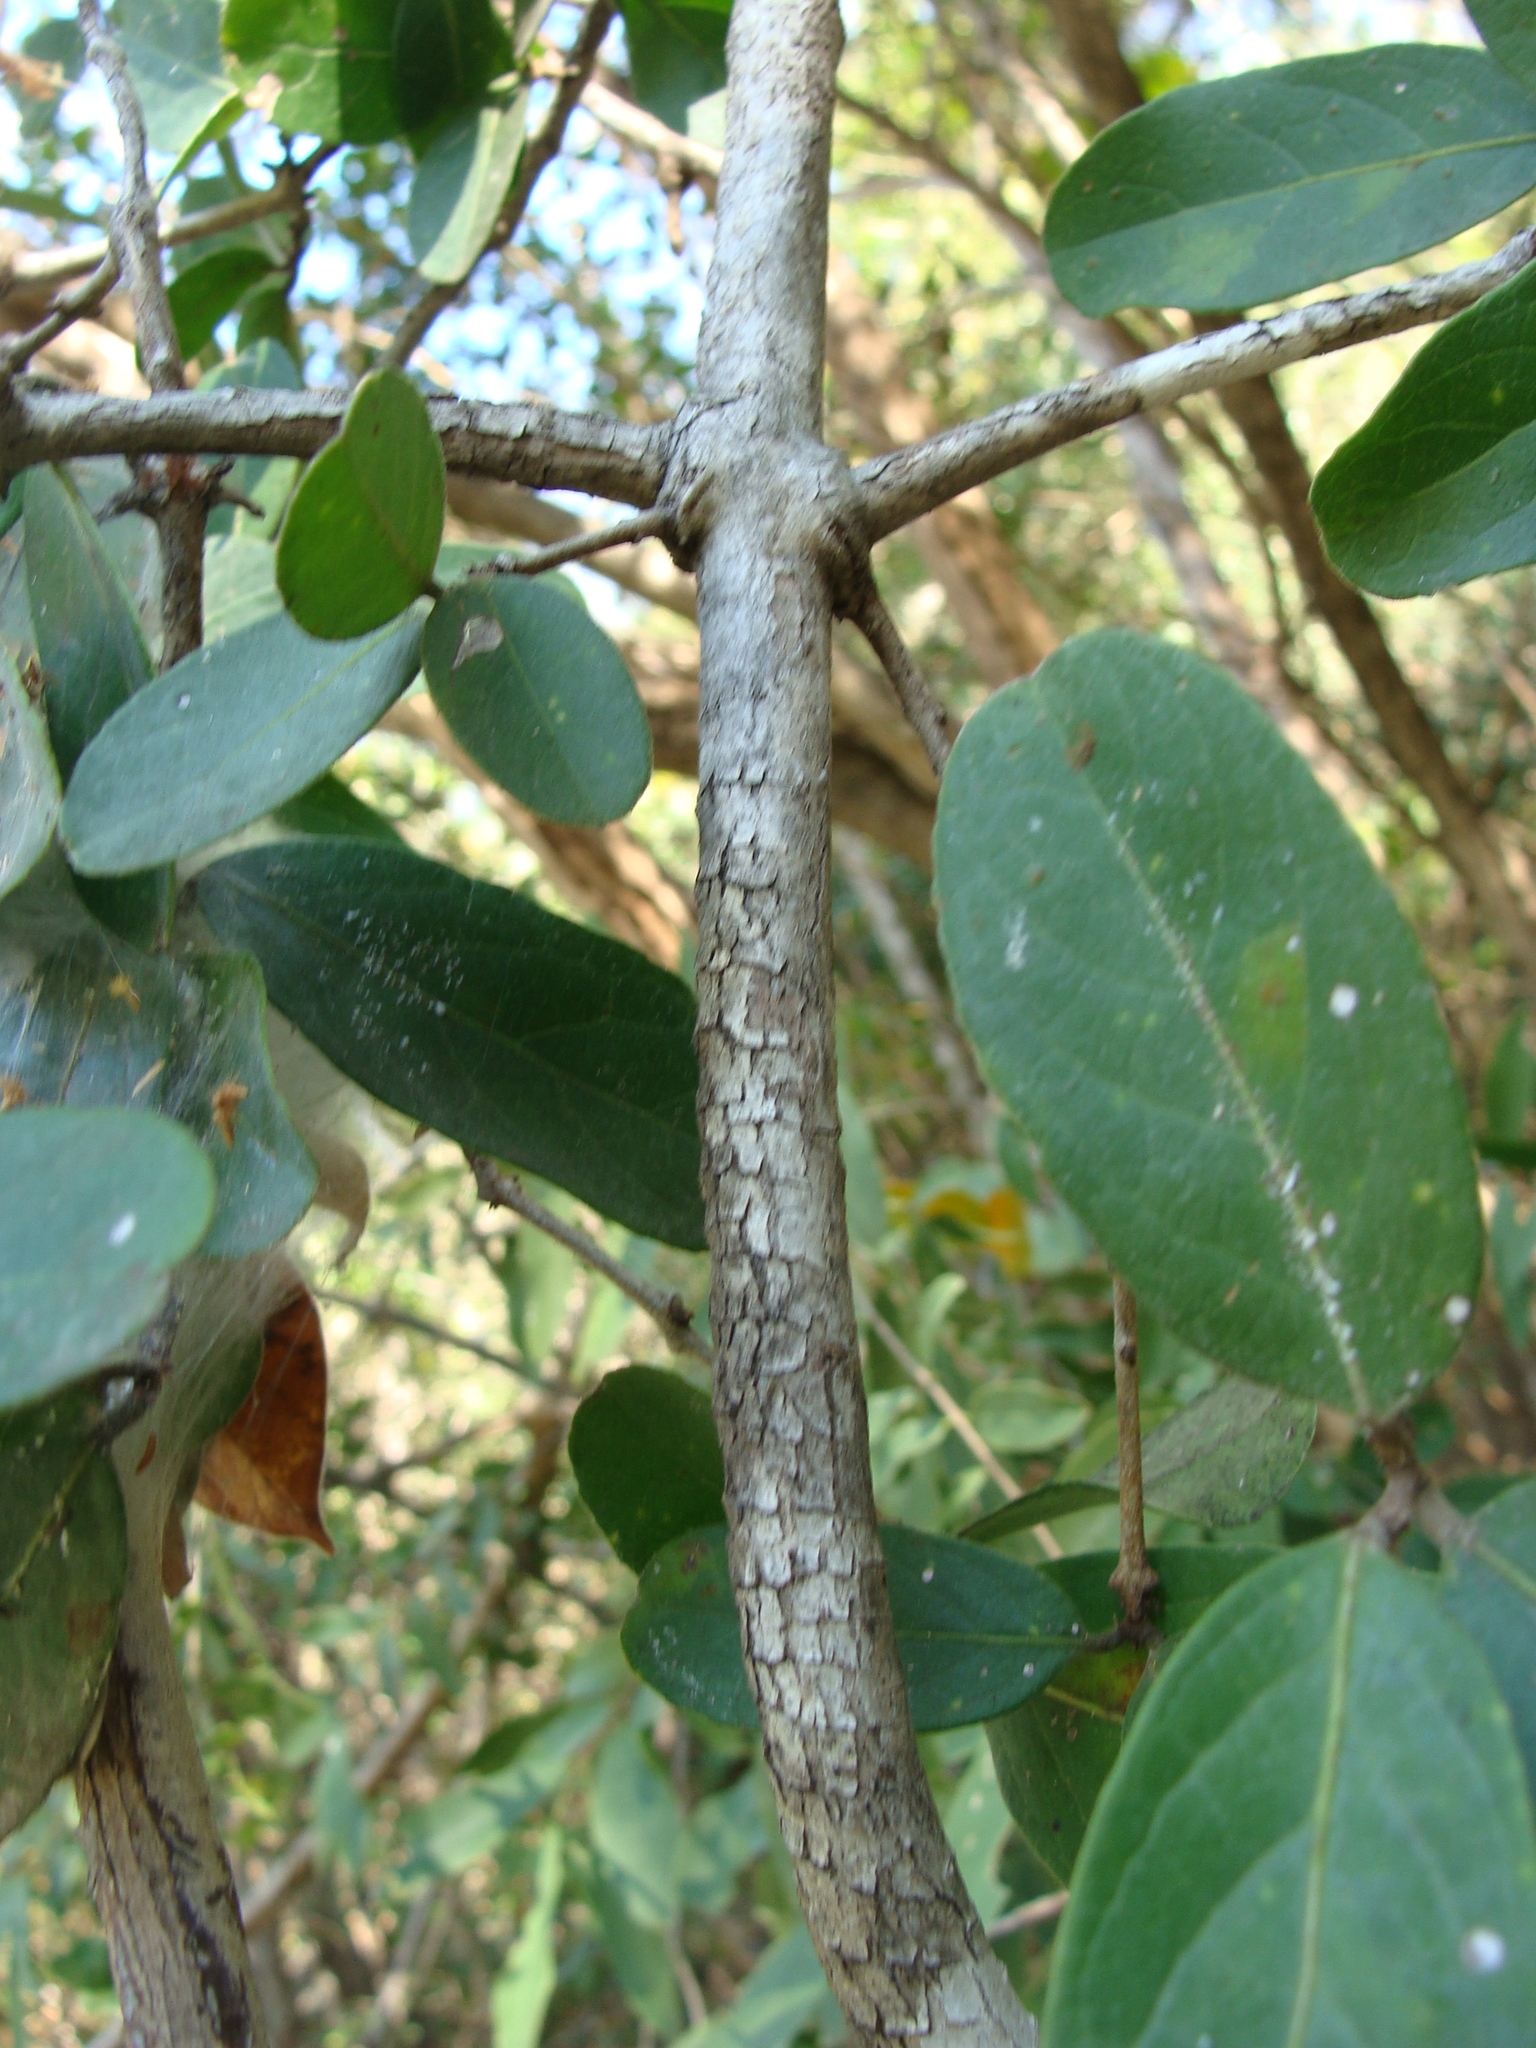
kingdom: Plantae
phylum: Tracheophyta
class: Magnoliopsida
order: Celastrales
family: Celastraceae
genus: Semialarium
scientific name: Semialarium mexicanum
